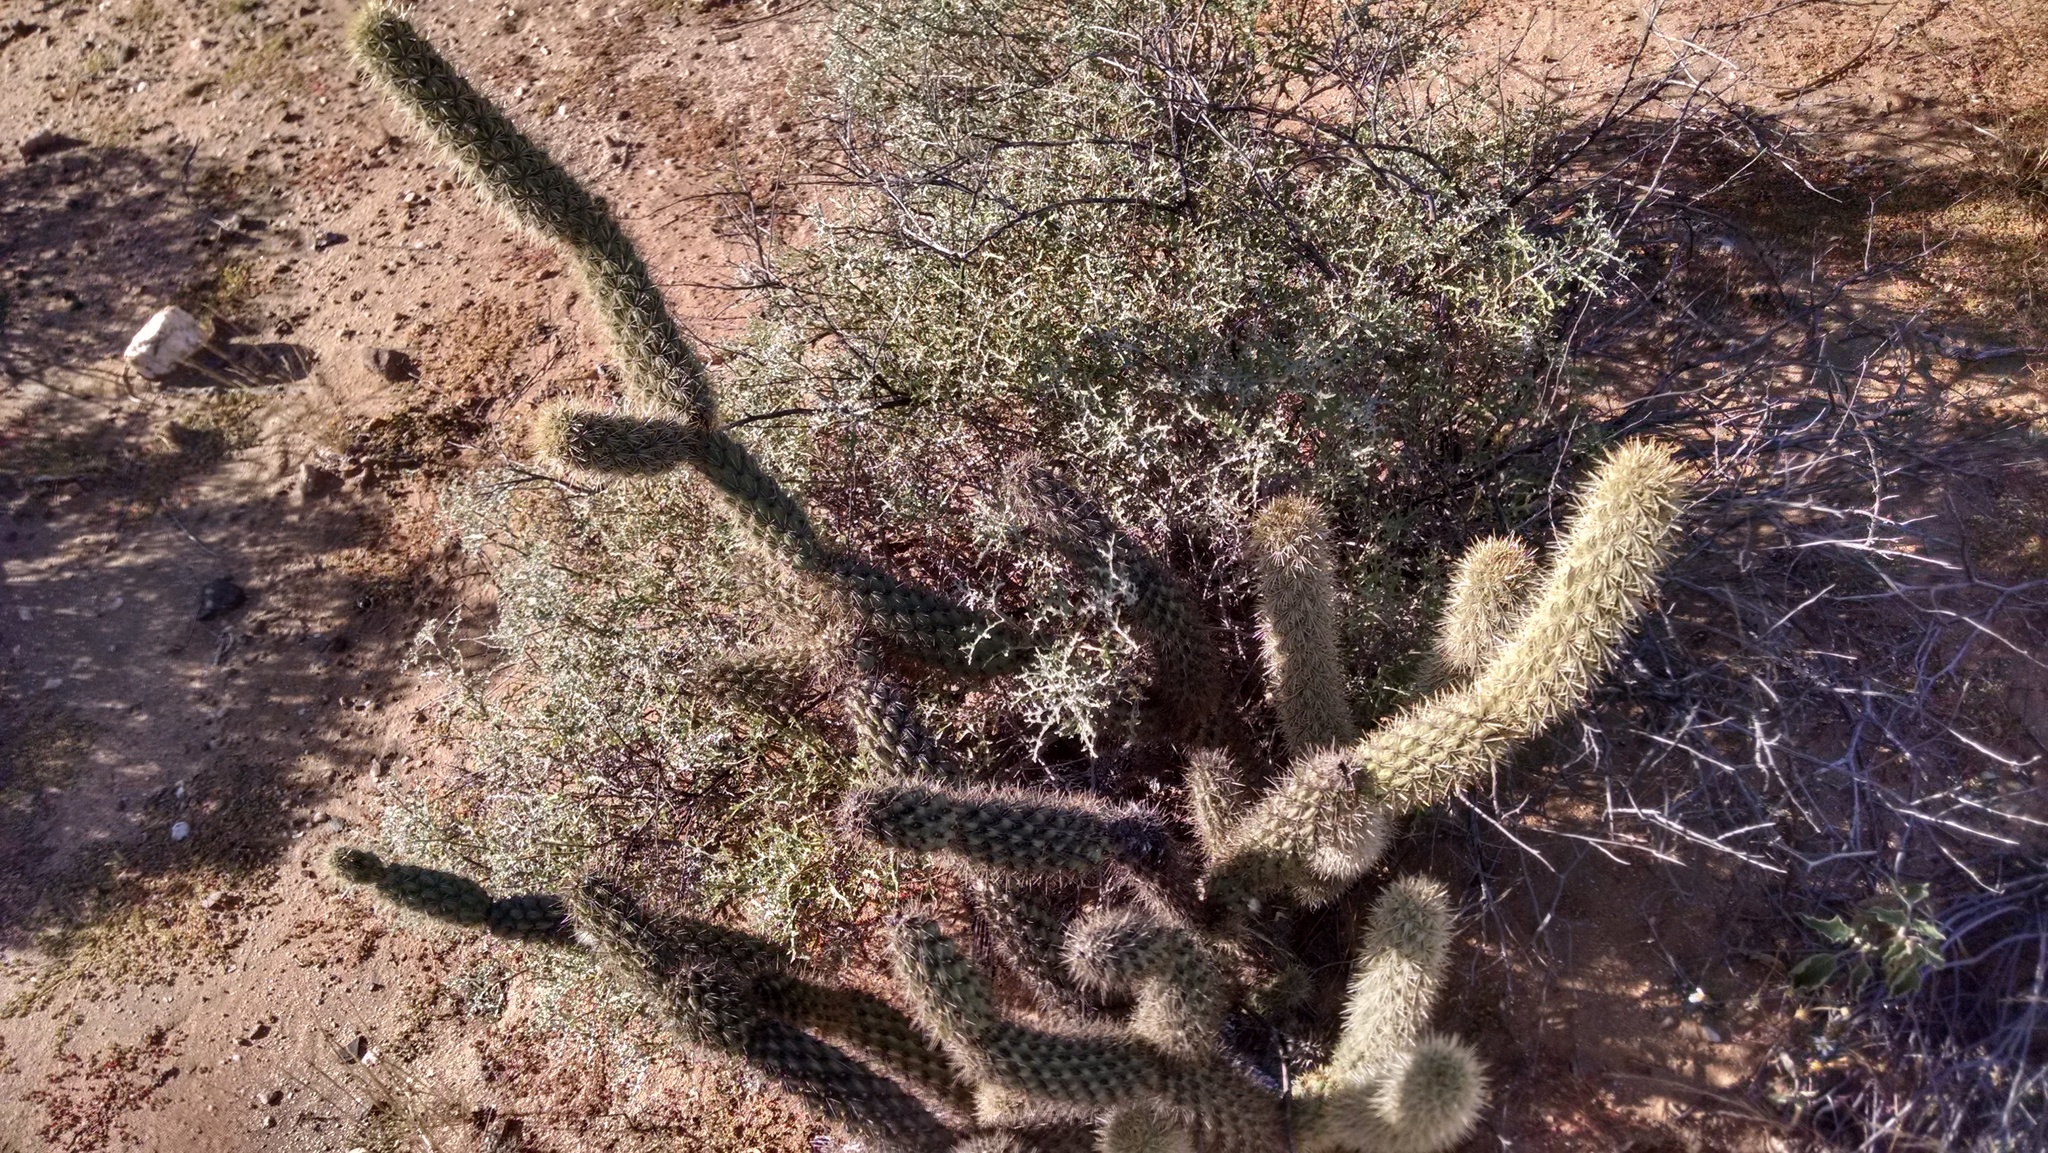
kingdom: Plantae
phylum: Tracheophyta
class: Magnoliopsida
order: Caryophyllales
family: Cactaceae
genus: Cylindropuntia
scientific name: Cylindropuntia ganderi
